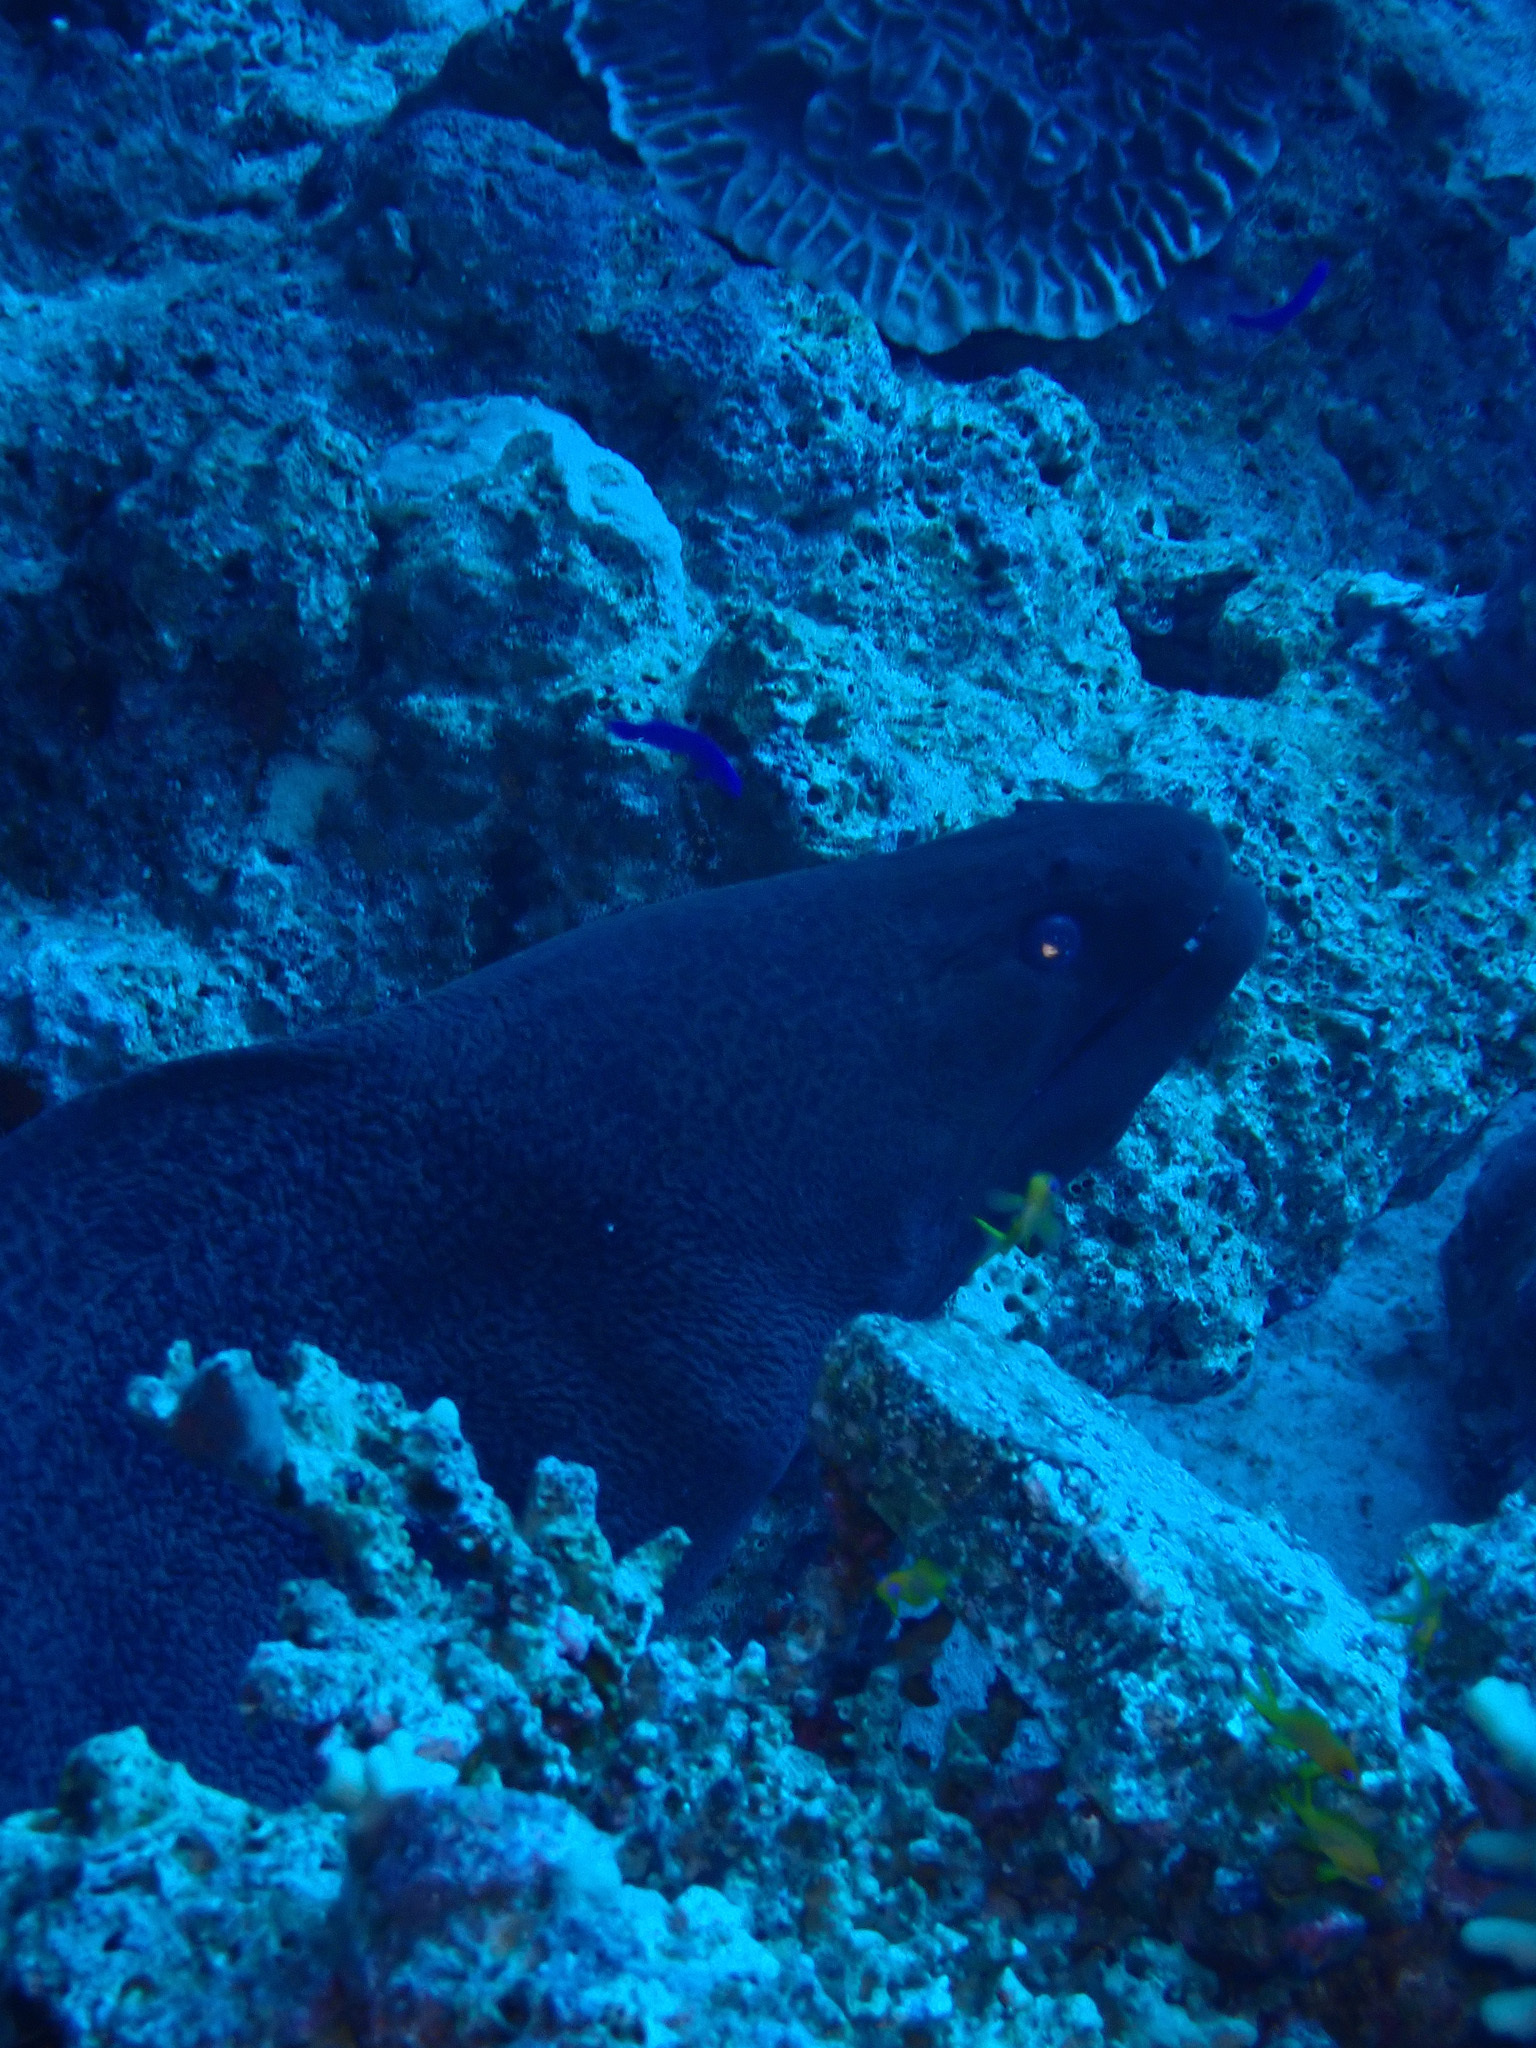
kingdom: Animalia
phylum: Chordata
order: Anguilliformes
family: Muraenidae
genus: Gymnothorax
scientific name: Gymnothorax javanicus
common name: Giant moray
